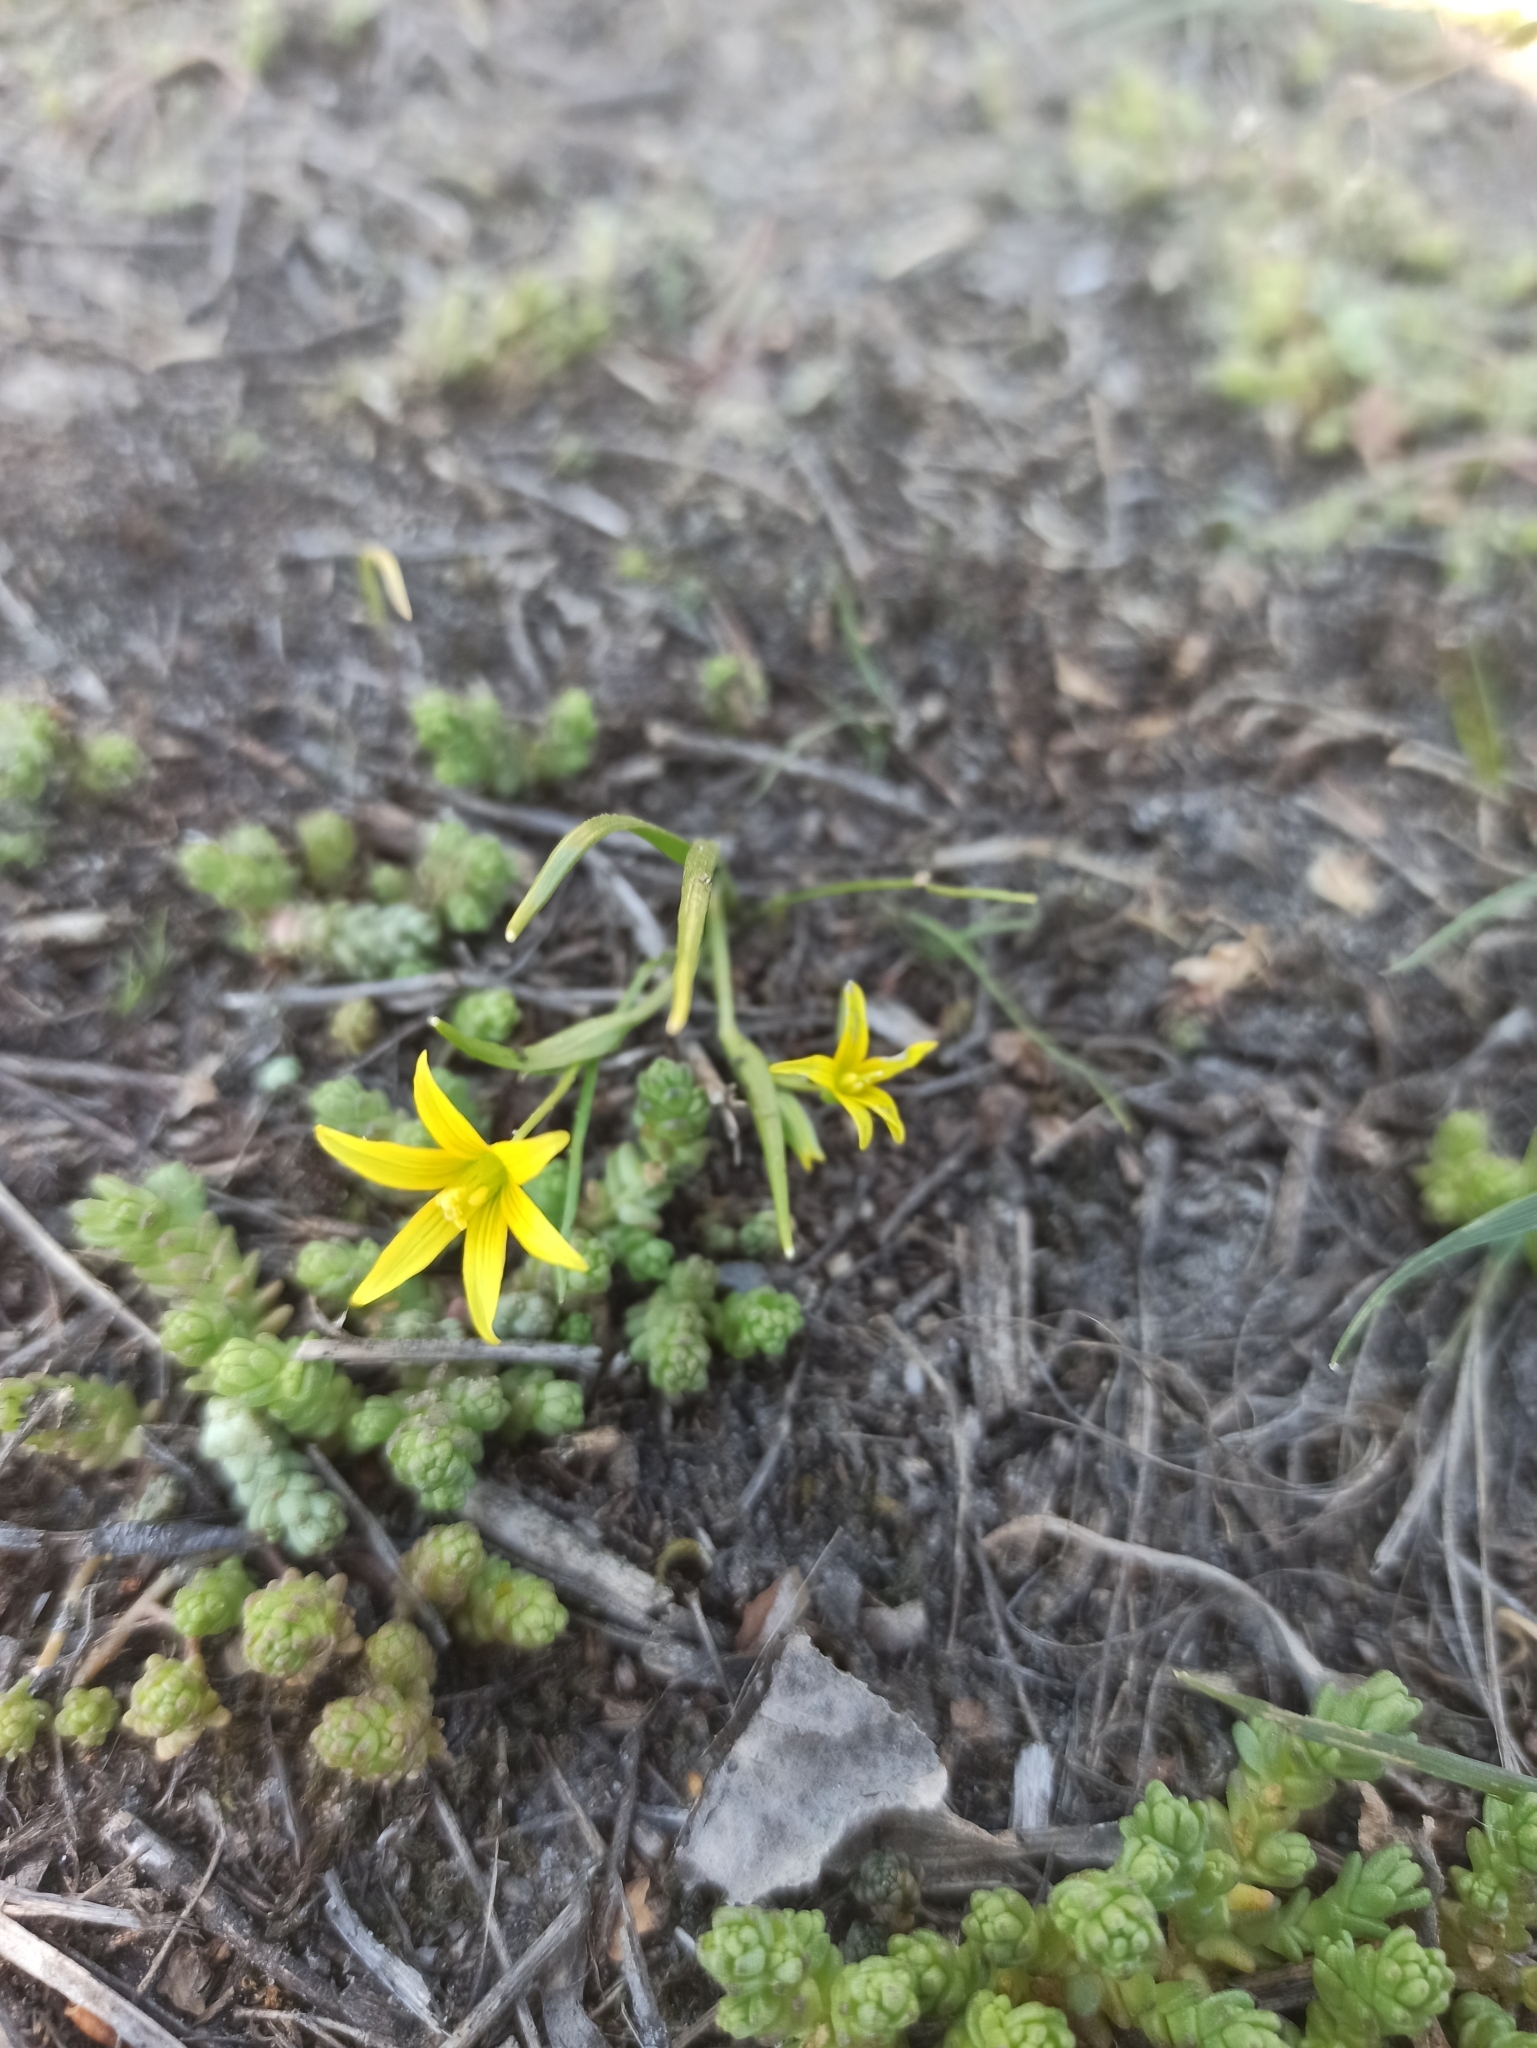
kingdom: Plantae
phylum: Tracheophyta
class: Liliopsida
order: Liliales
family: Liliaceae
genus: Gagea
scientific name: Gagea minima
